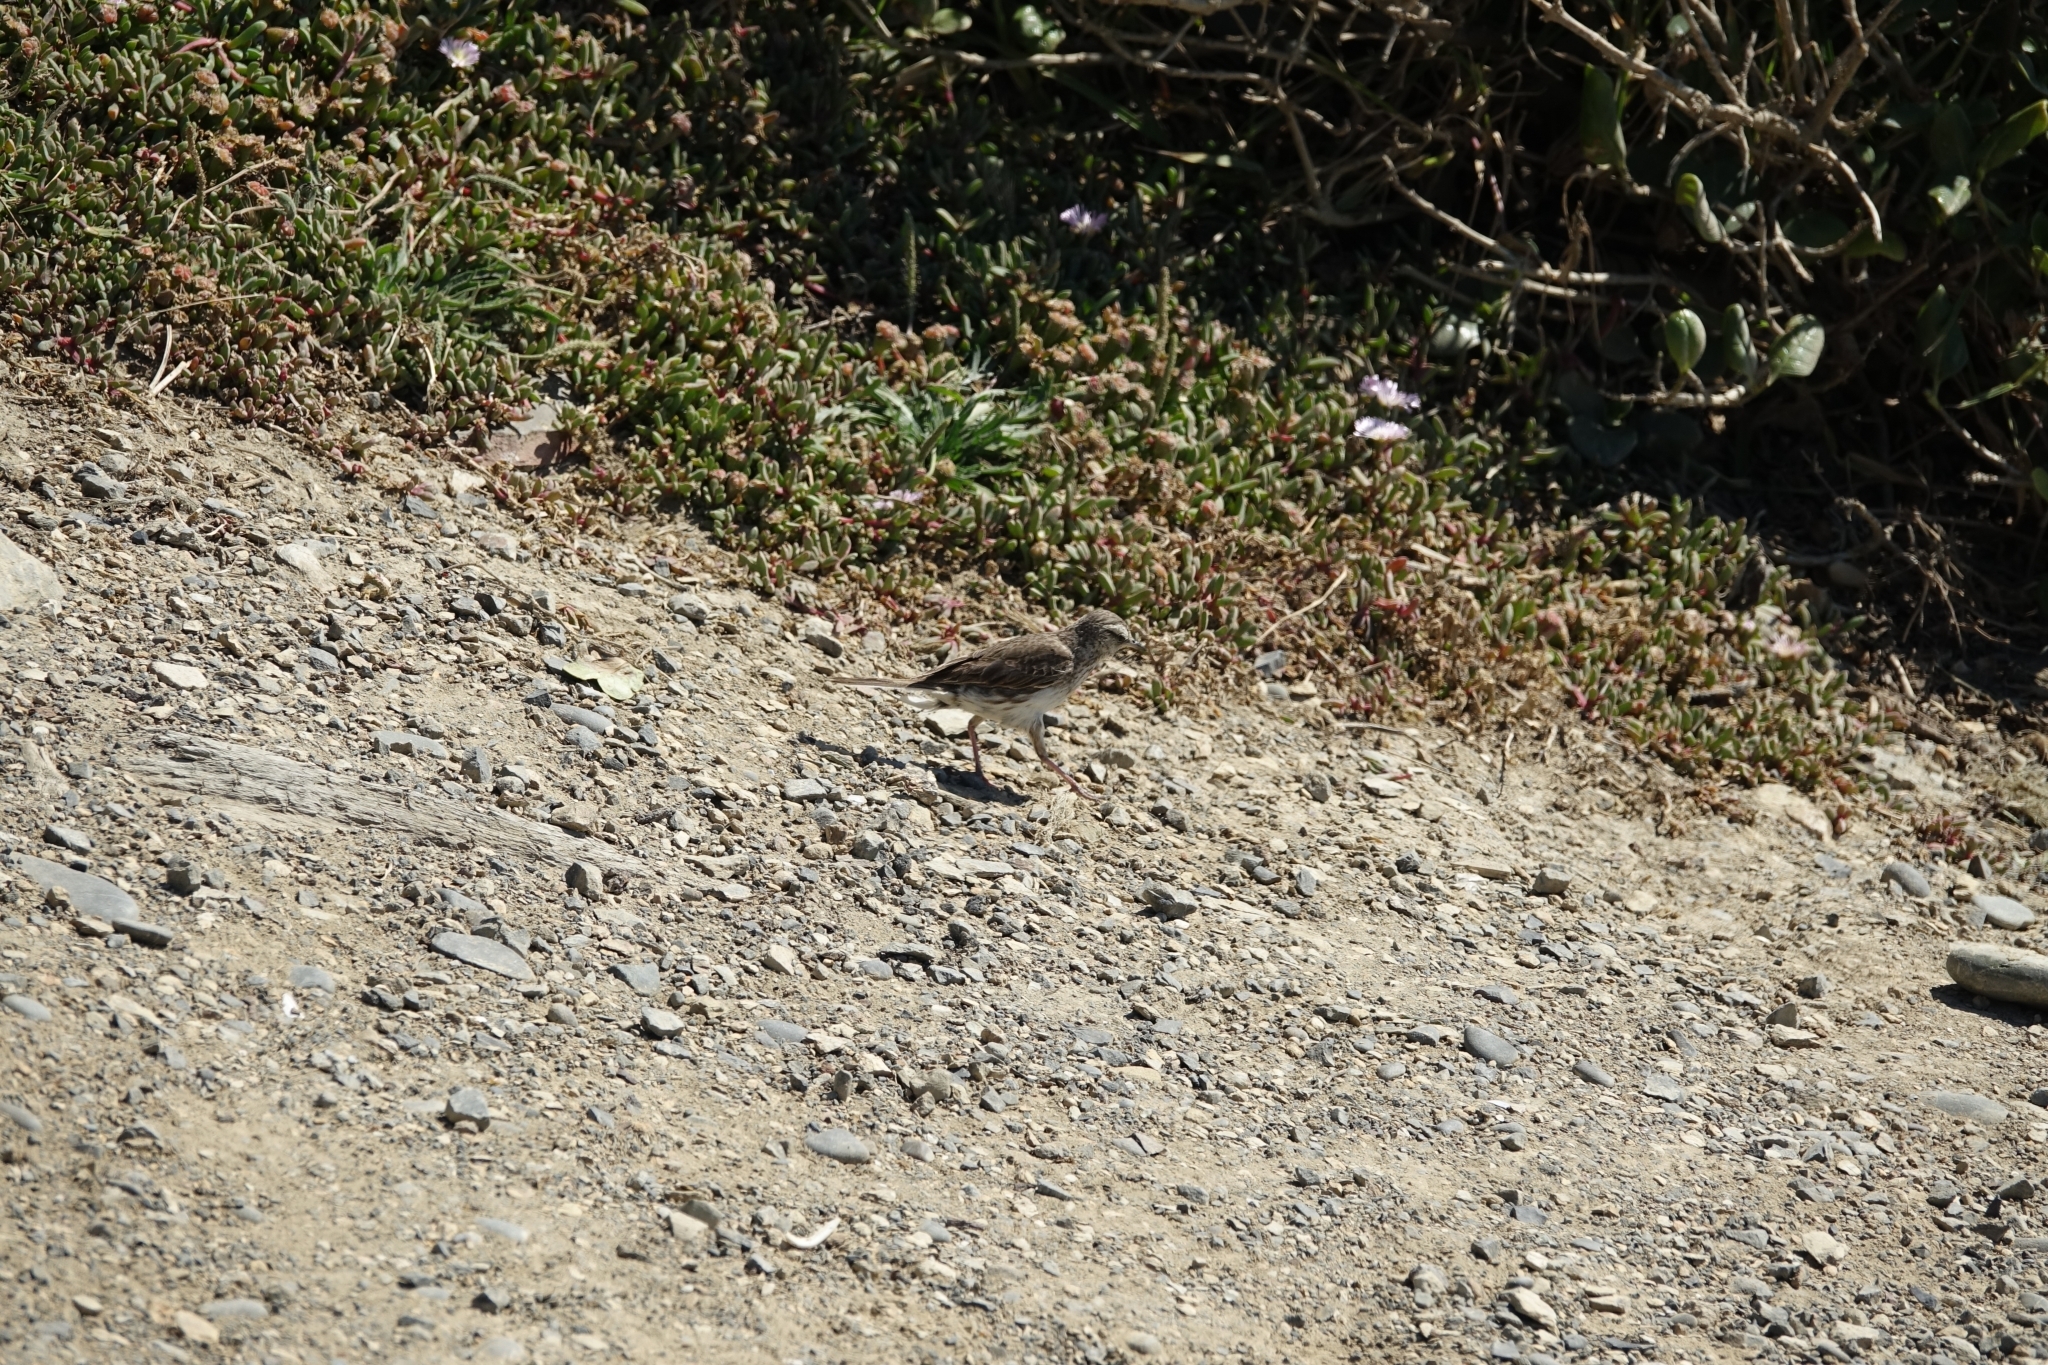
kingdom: Animalia
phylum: Chordata
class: Aves
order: Passeriformes
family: Motacillidae
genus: Anthus
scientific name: Anthus novaeseelandiae
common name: New zealand pipit
